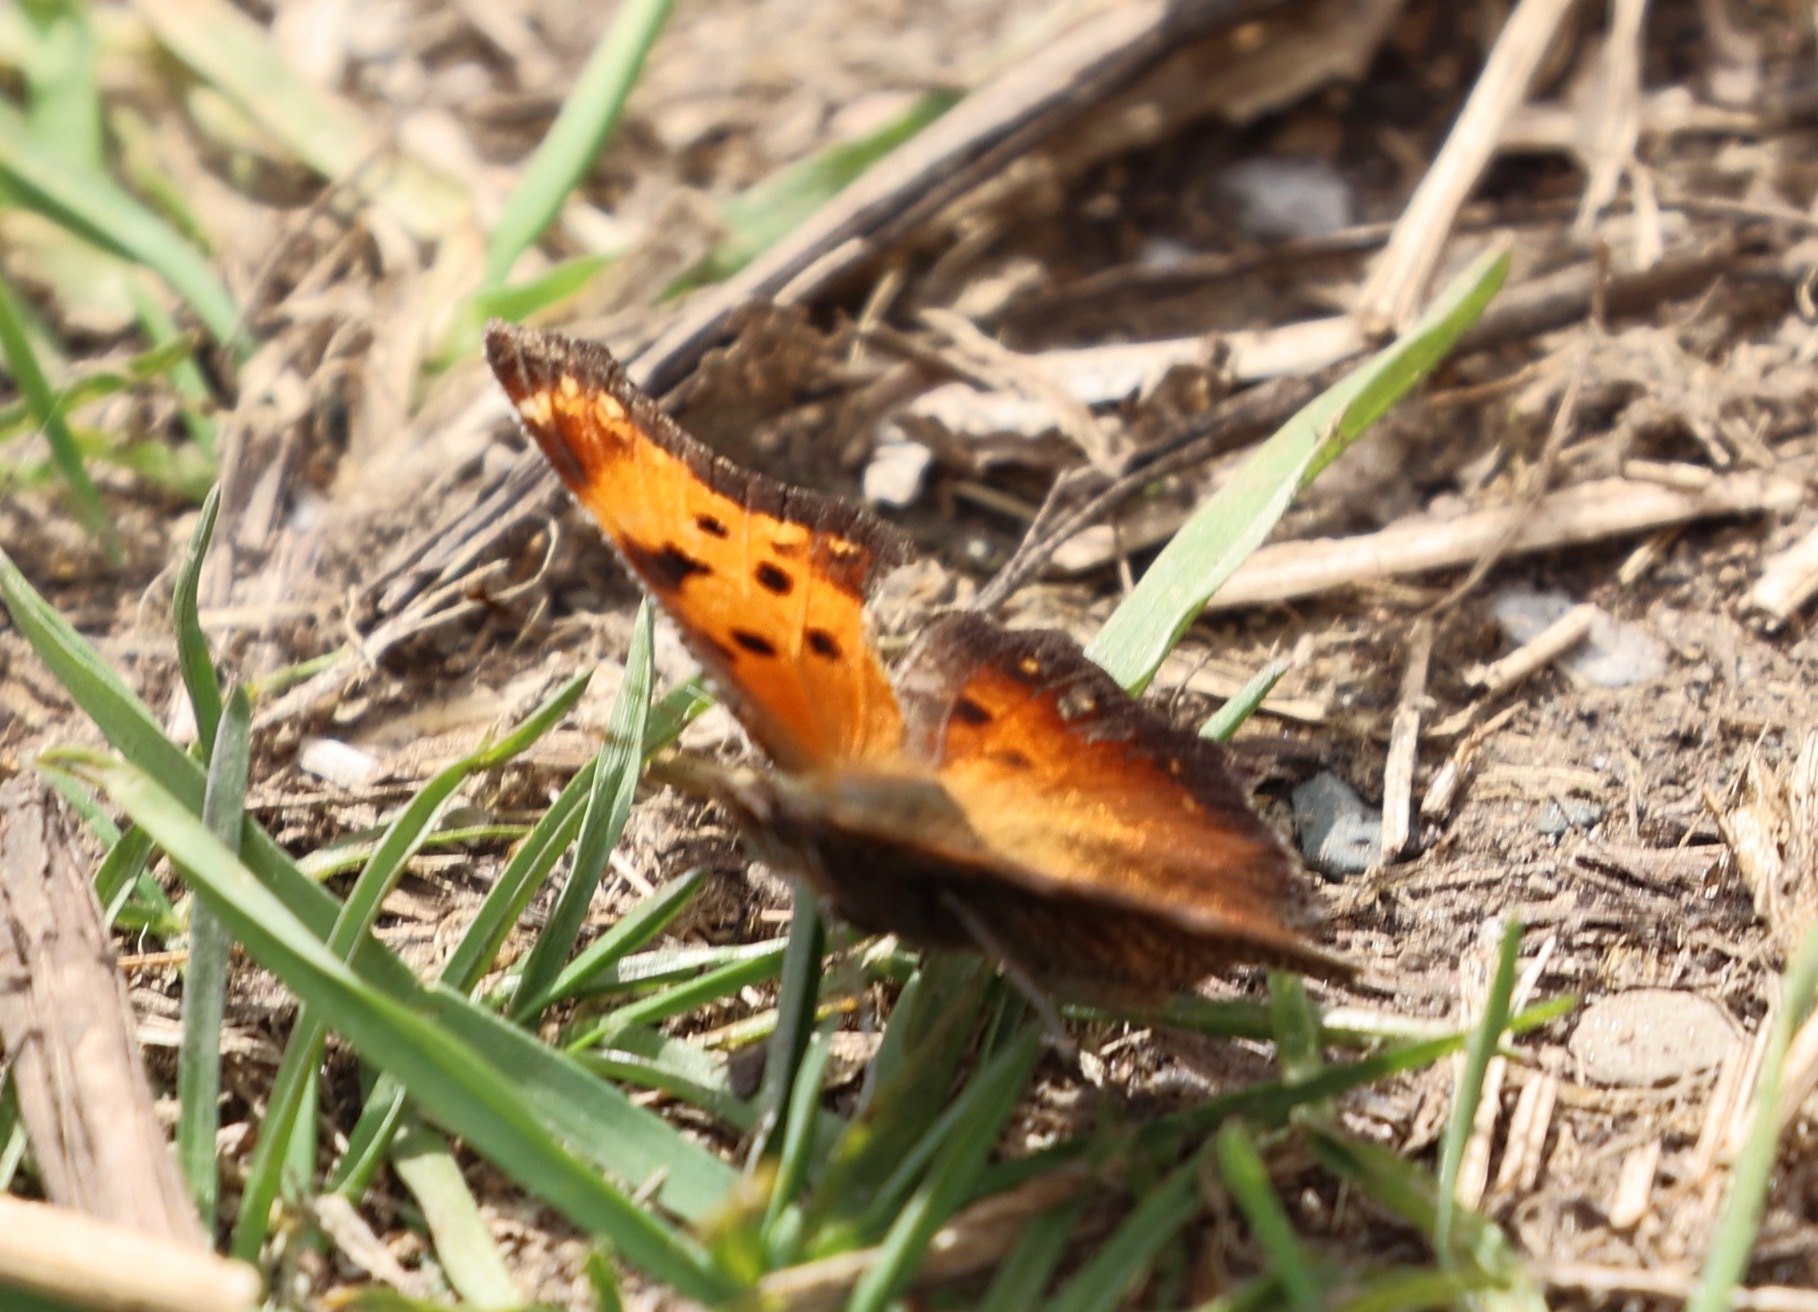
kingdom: Animalia
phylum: Arthropoda
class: Insecta
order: Lepidoptera
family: Nymphalidae
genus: Polygonia
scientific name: Polygonia progne
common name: Gray comma
